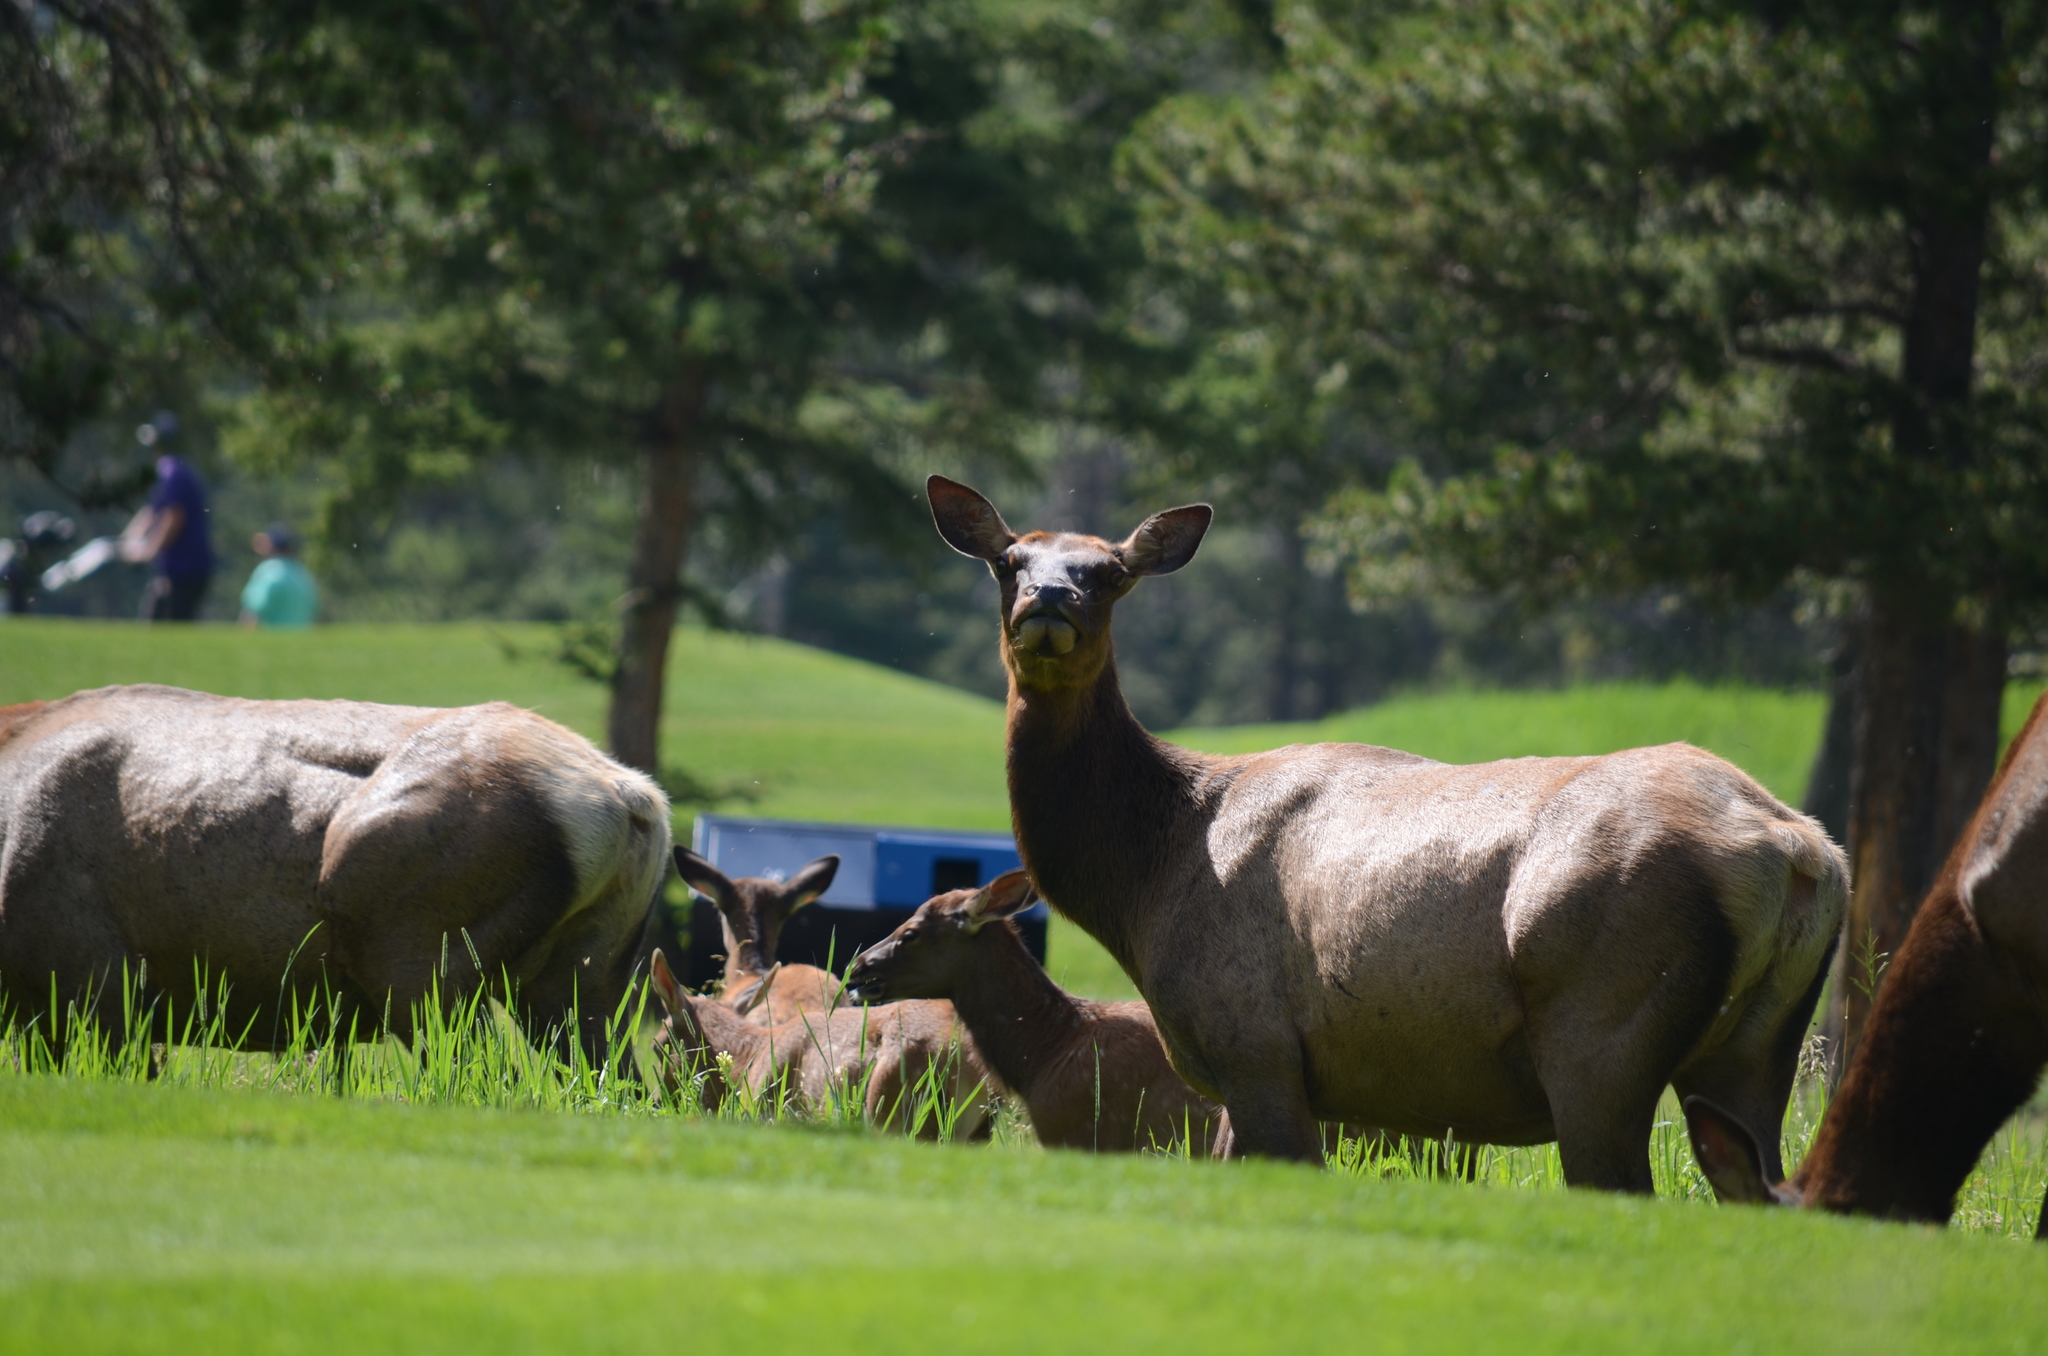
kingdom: Animalia
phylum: Chordata
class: Mammalia
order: Artiodactyla
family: Cervidae
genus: Cervus
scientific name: Cervus elaphus
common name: Red deer
